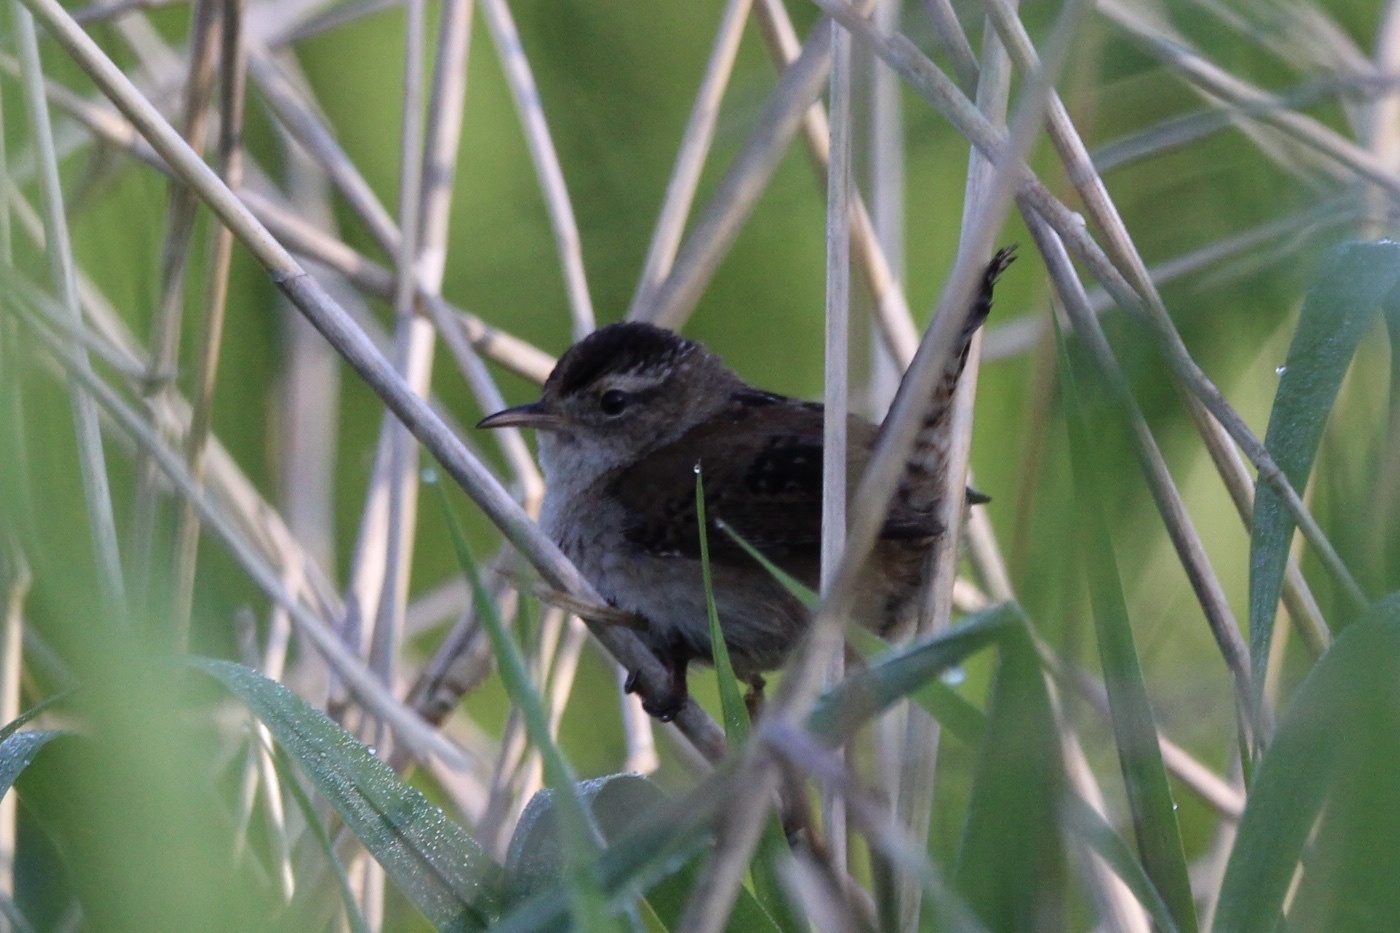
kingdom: Animalia
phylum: Chordata
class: Aves
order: Passeriformes
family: Troglodytidae
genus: Cistothorus
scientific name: Cistothorus palustris
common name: Marsh wren
